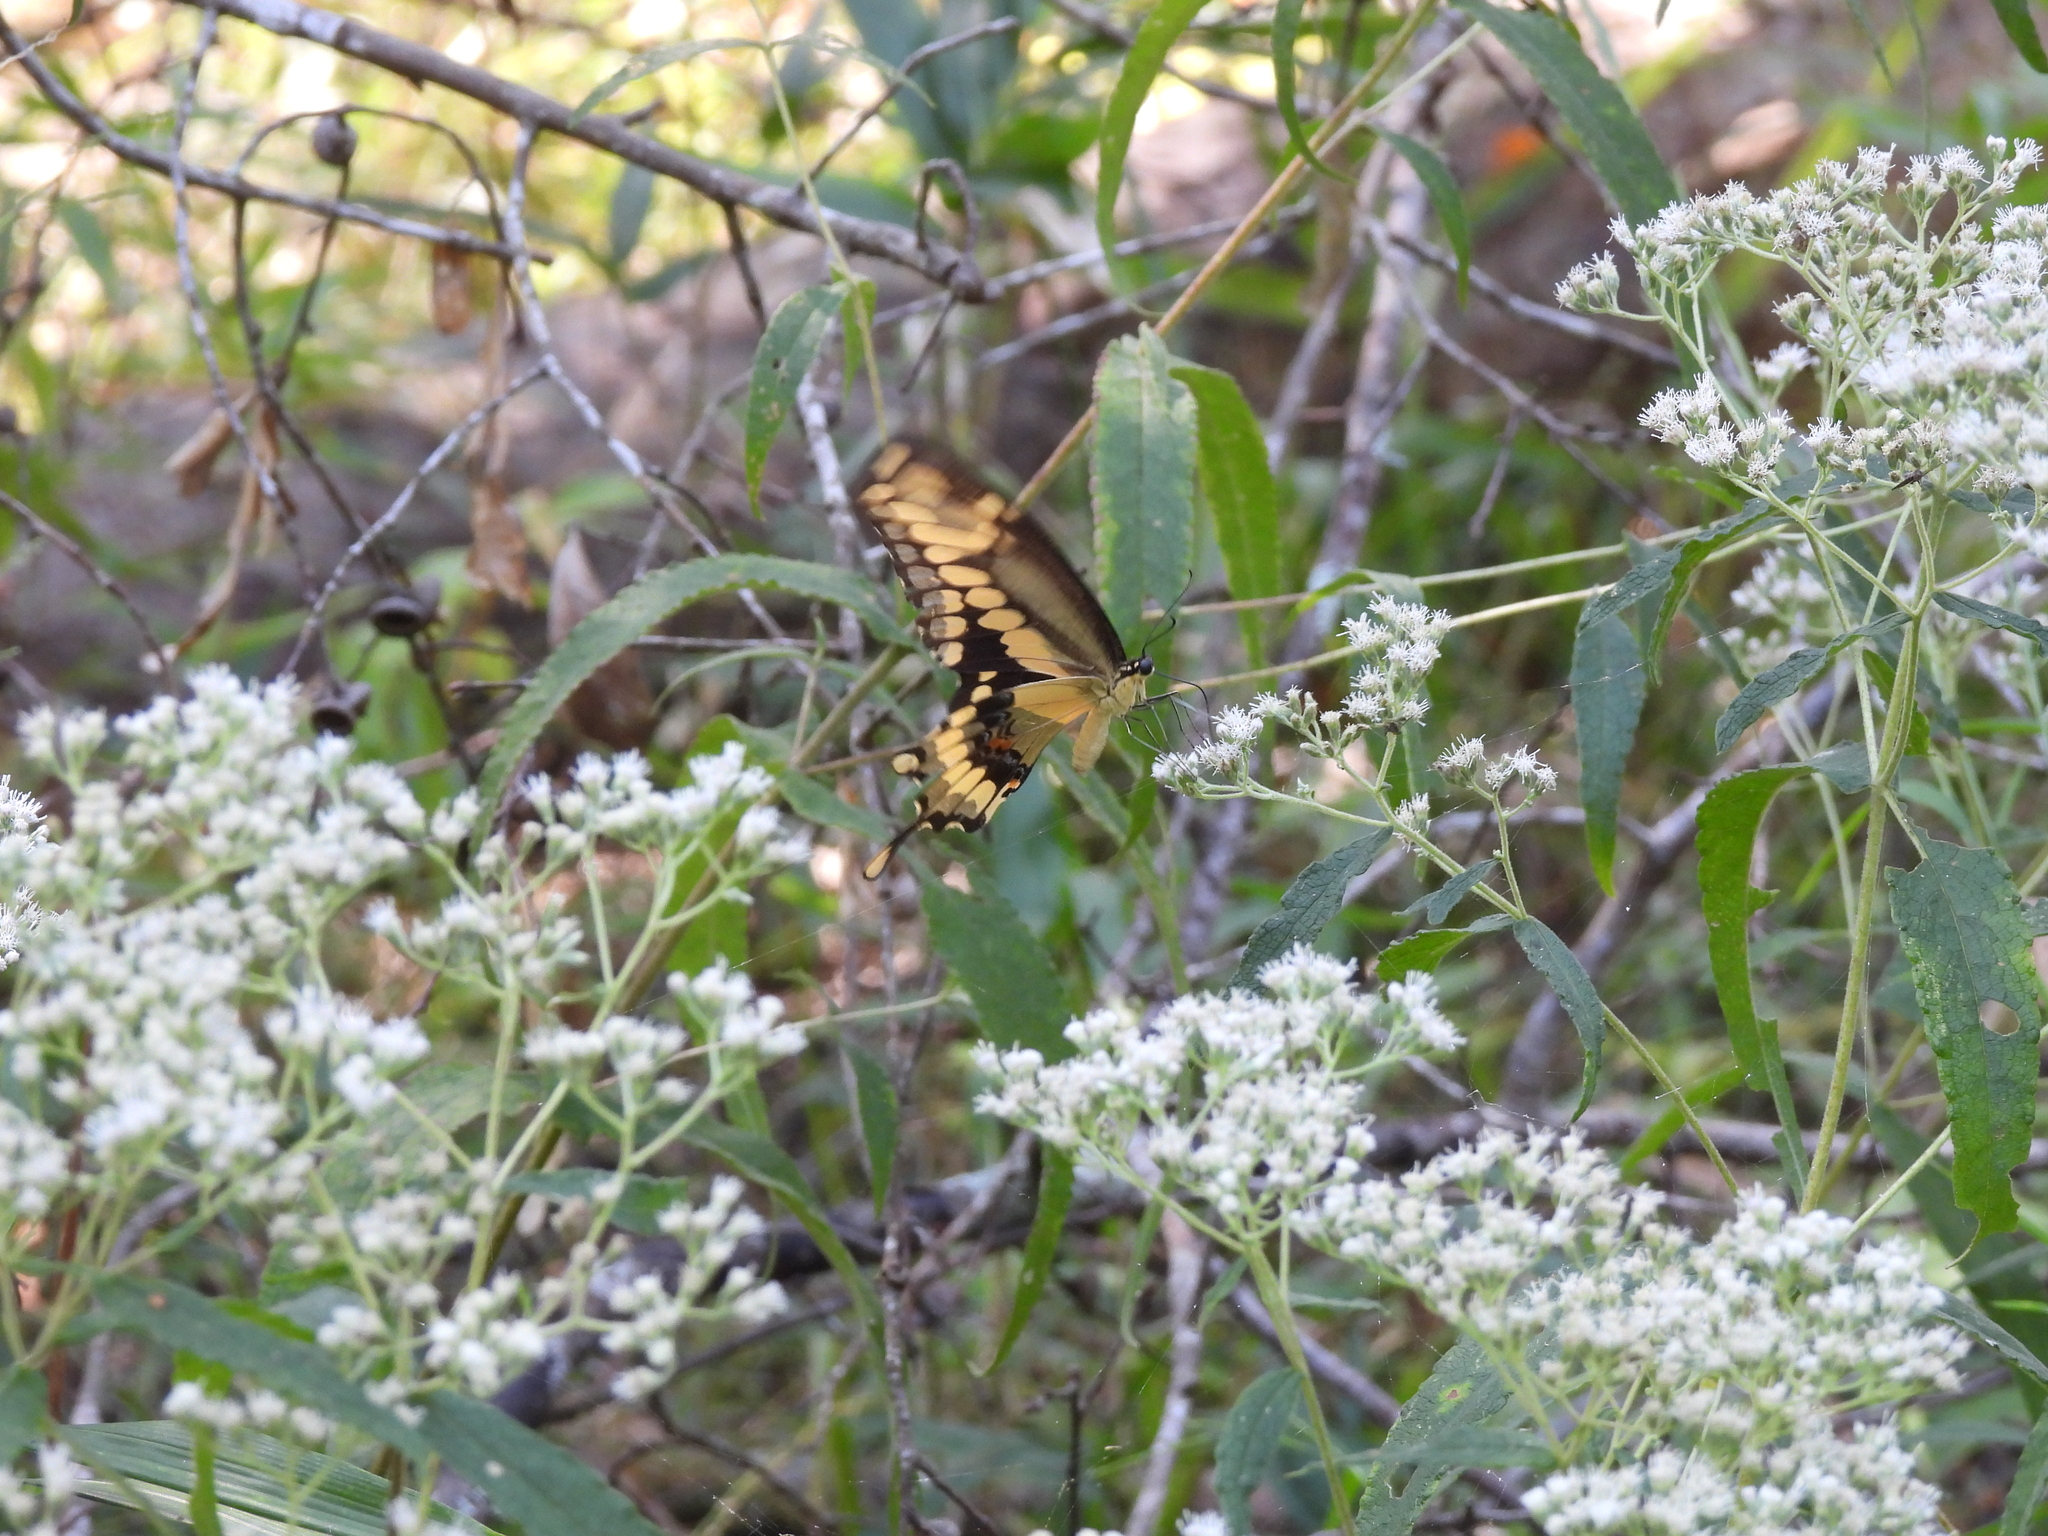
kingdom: Animalia
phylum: Arthropoda
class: Insecta
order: Lepidoptera
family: Papilionidae
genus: Papilio
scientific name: Papilio cresphontes
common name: Giant swallowtail
